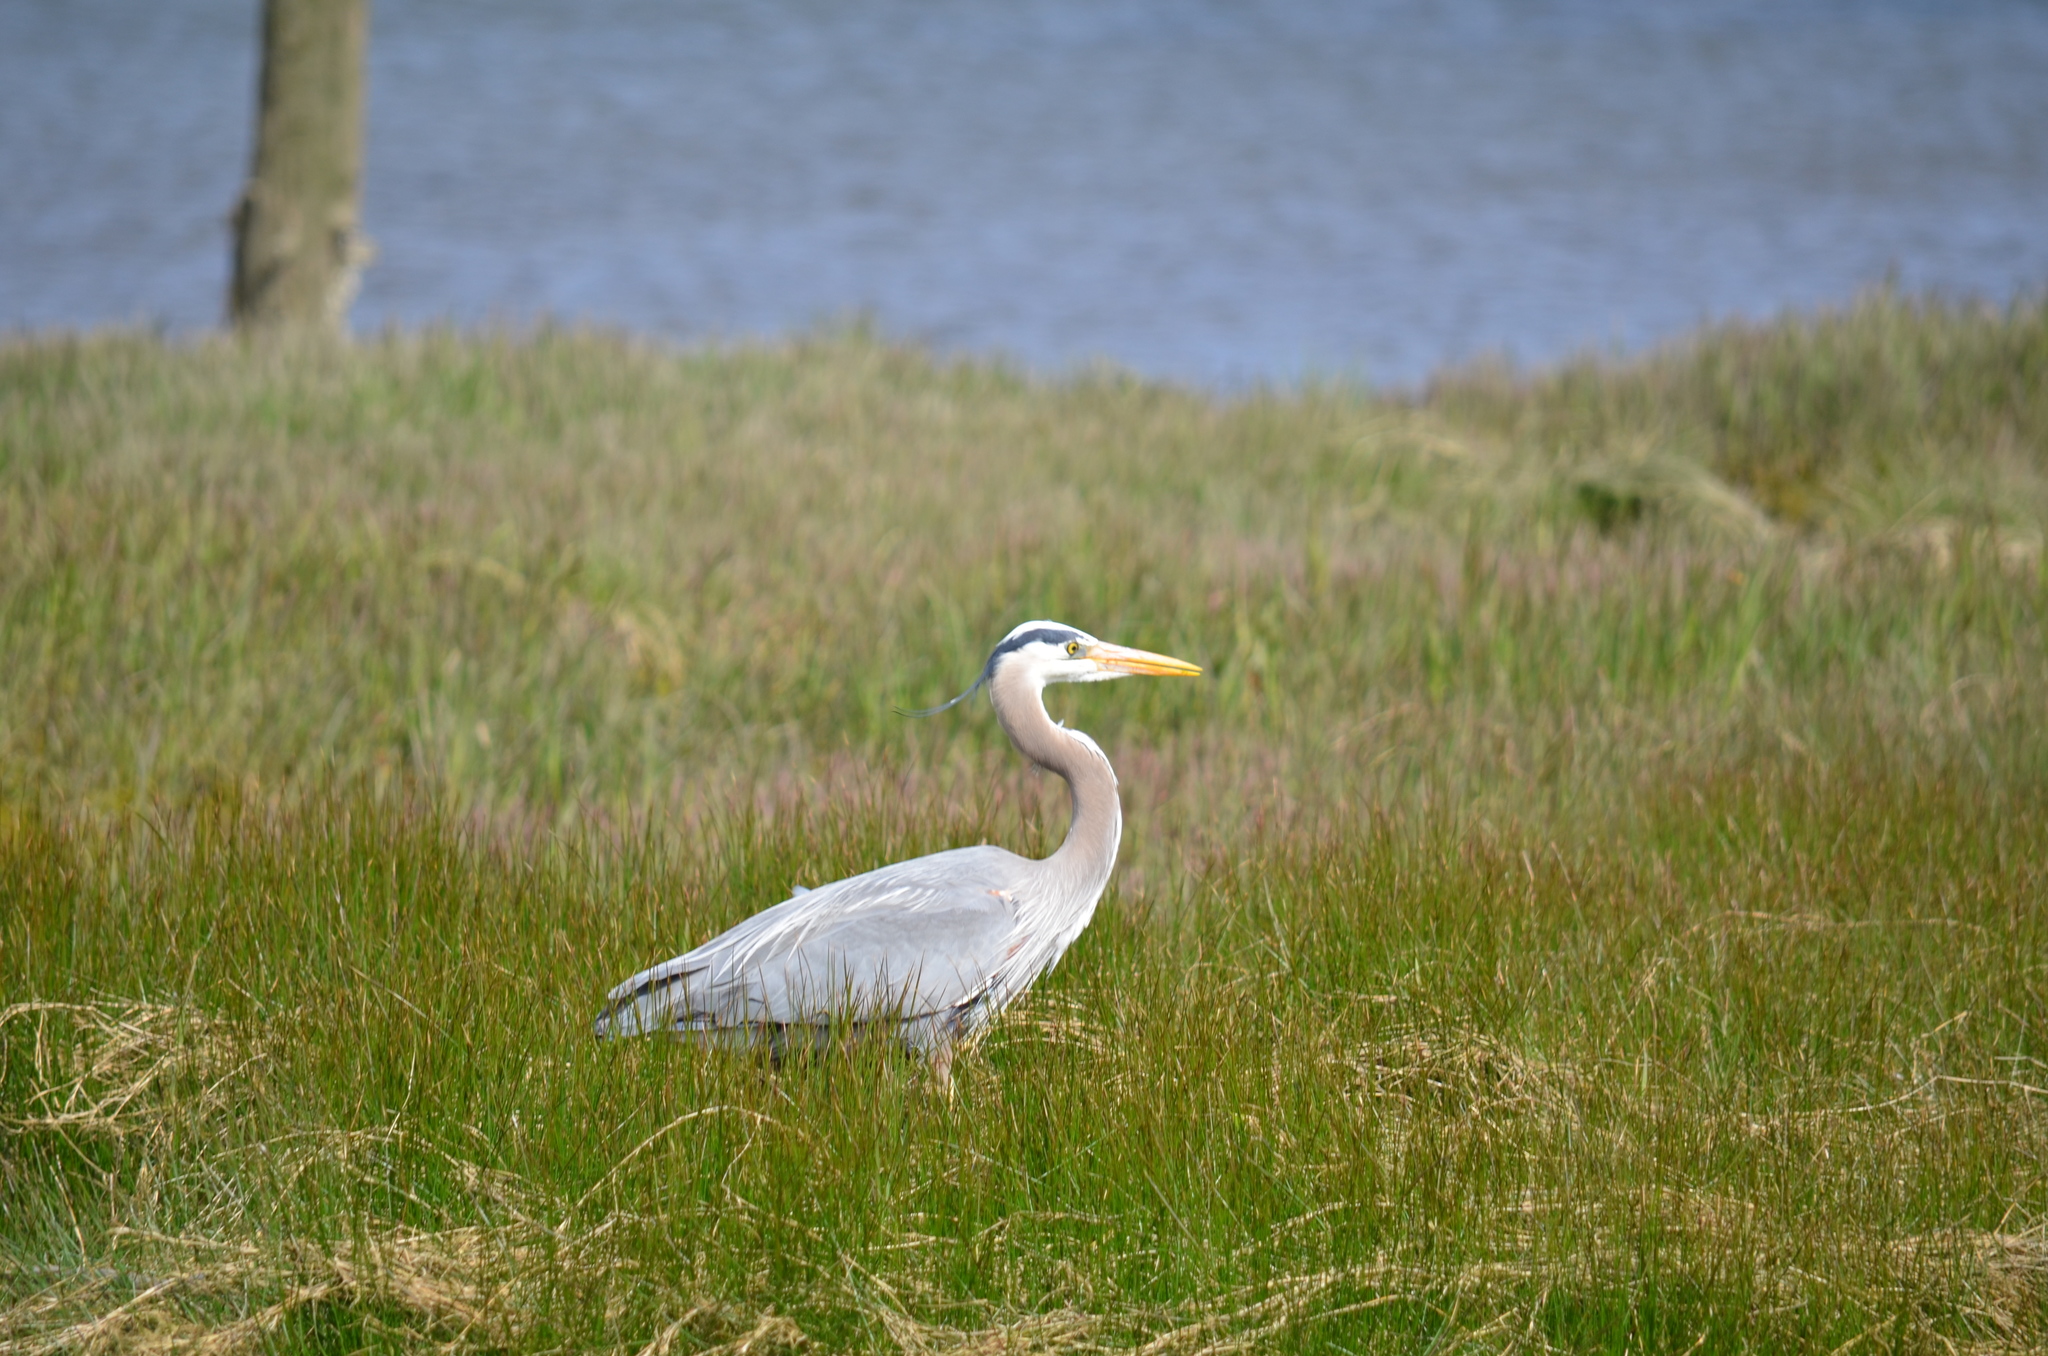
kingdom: Animalia
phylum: Chordata
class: Aves
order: Pelecaniformes
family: Ardeidae
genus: Ardea
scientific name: Ardea herodias
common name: Great blue heron
